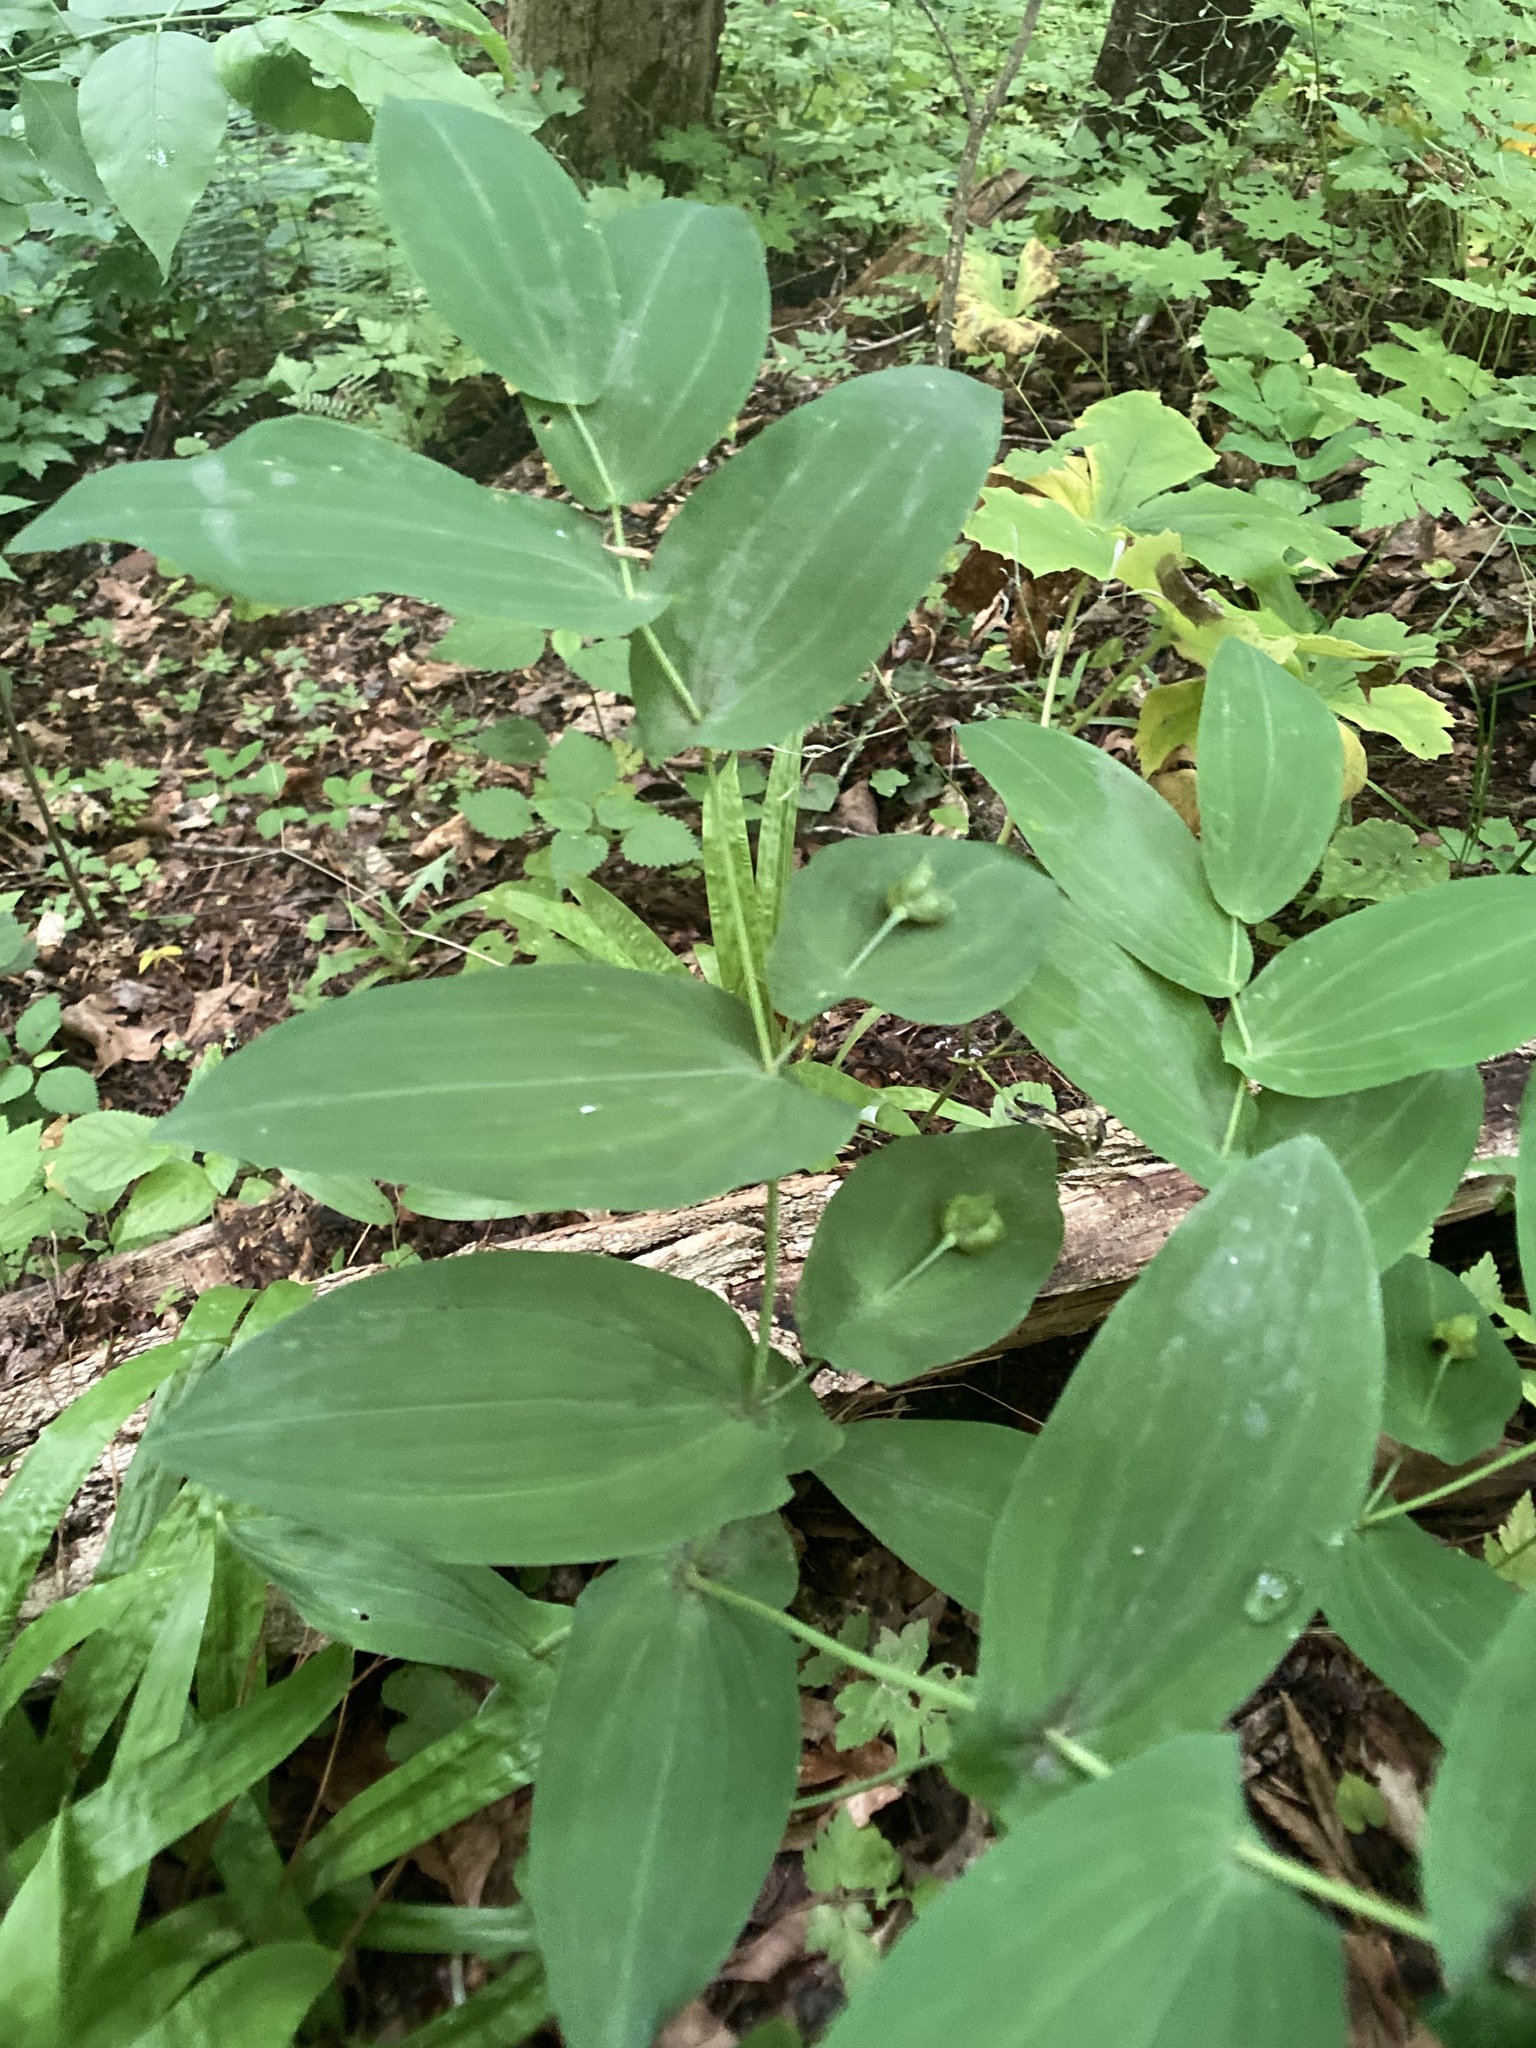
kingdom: Plantae
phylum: Tracheophyta
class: Liliopsida
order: Liliales
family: Colchicaceae
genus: Uvularia
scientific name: Uvularia perfoliata
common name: Perfoliate bellwort
